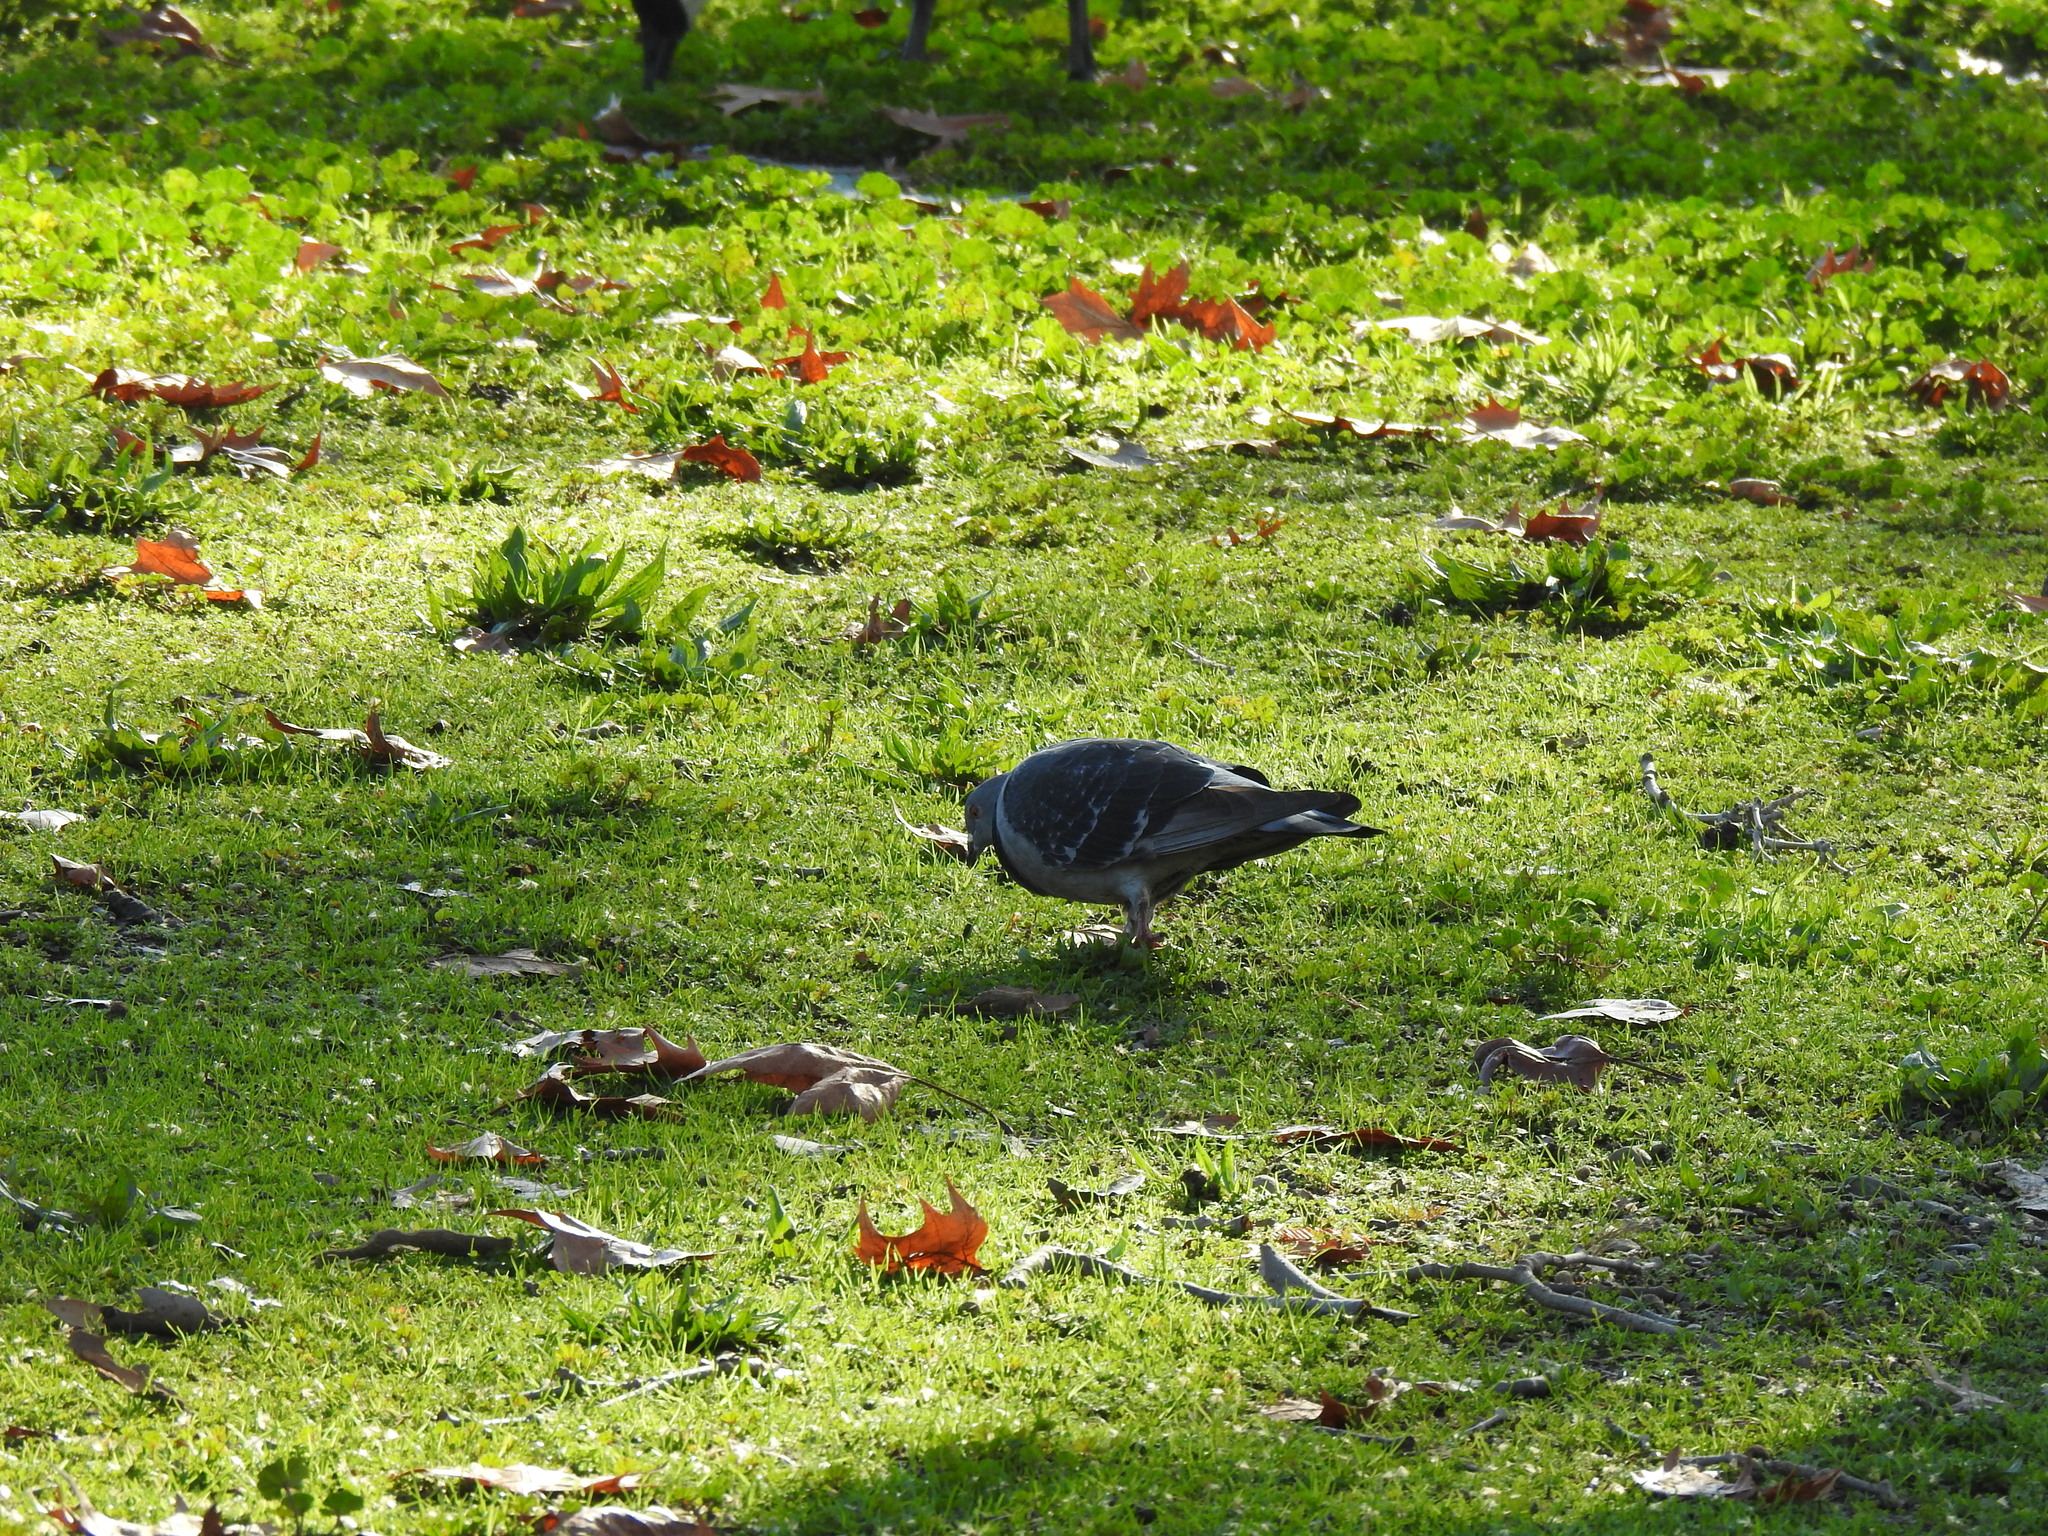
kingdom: Animalia
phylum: Chordata
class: Aves
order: Columbiformes
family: Columbidae
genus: Columba
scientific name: Columba livia
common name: Rock pigeon
